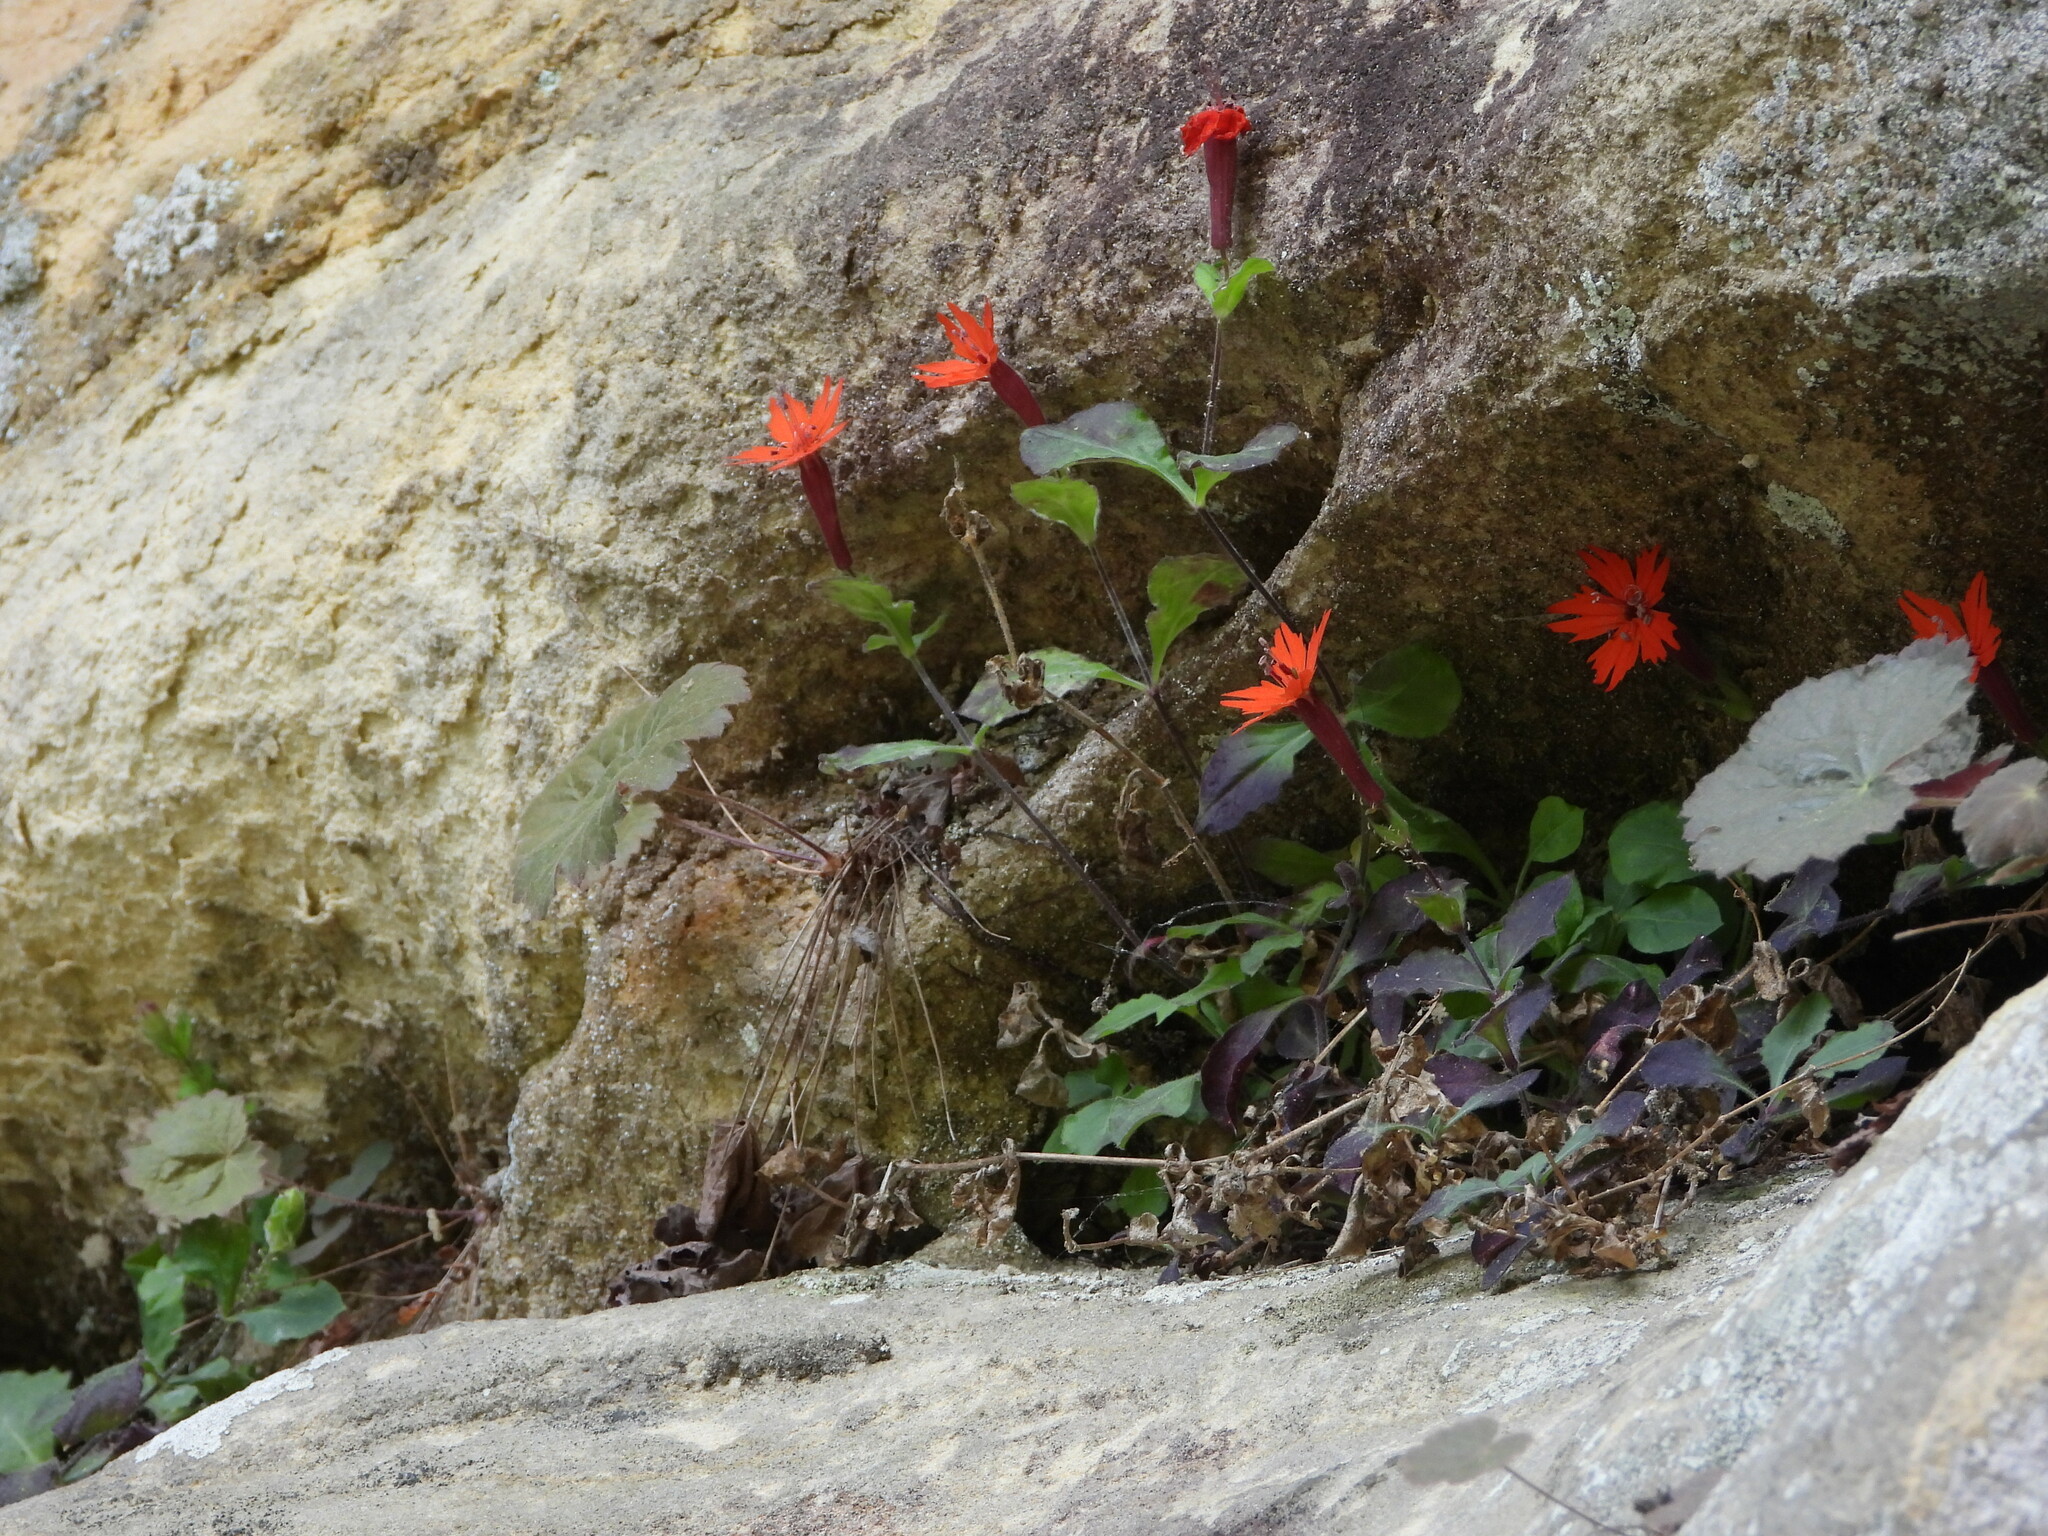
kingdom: Plantae
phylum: Tracheophyta
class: Magnoliopsida
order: Caryophyllales
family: Caryophyllaceae
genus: Silene
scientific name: Silene rotundifolia
